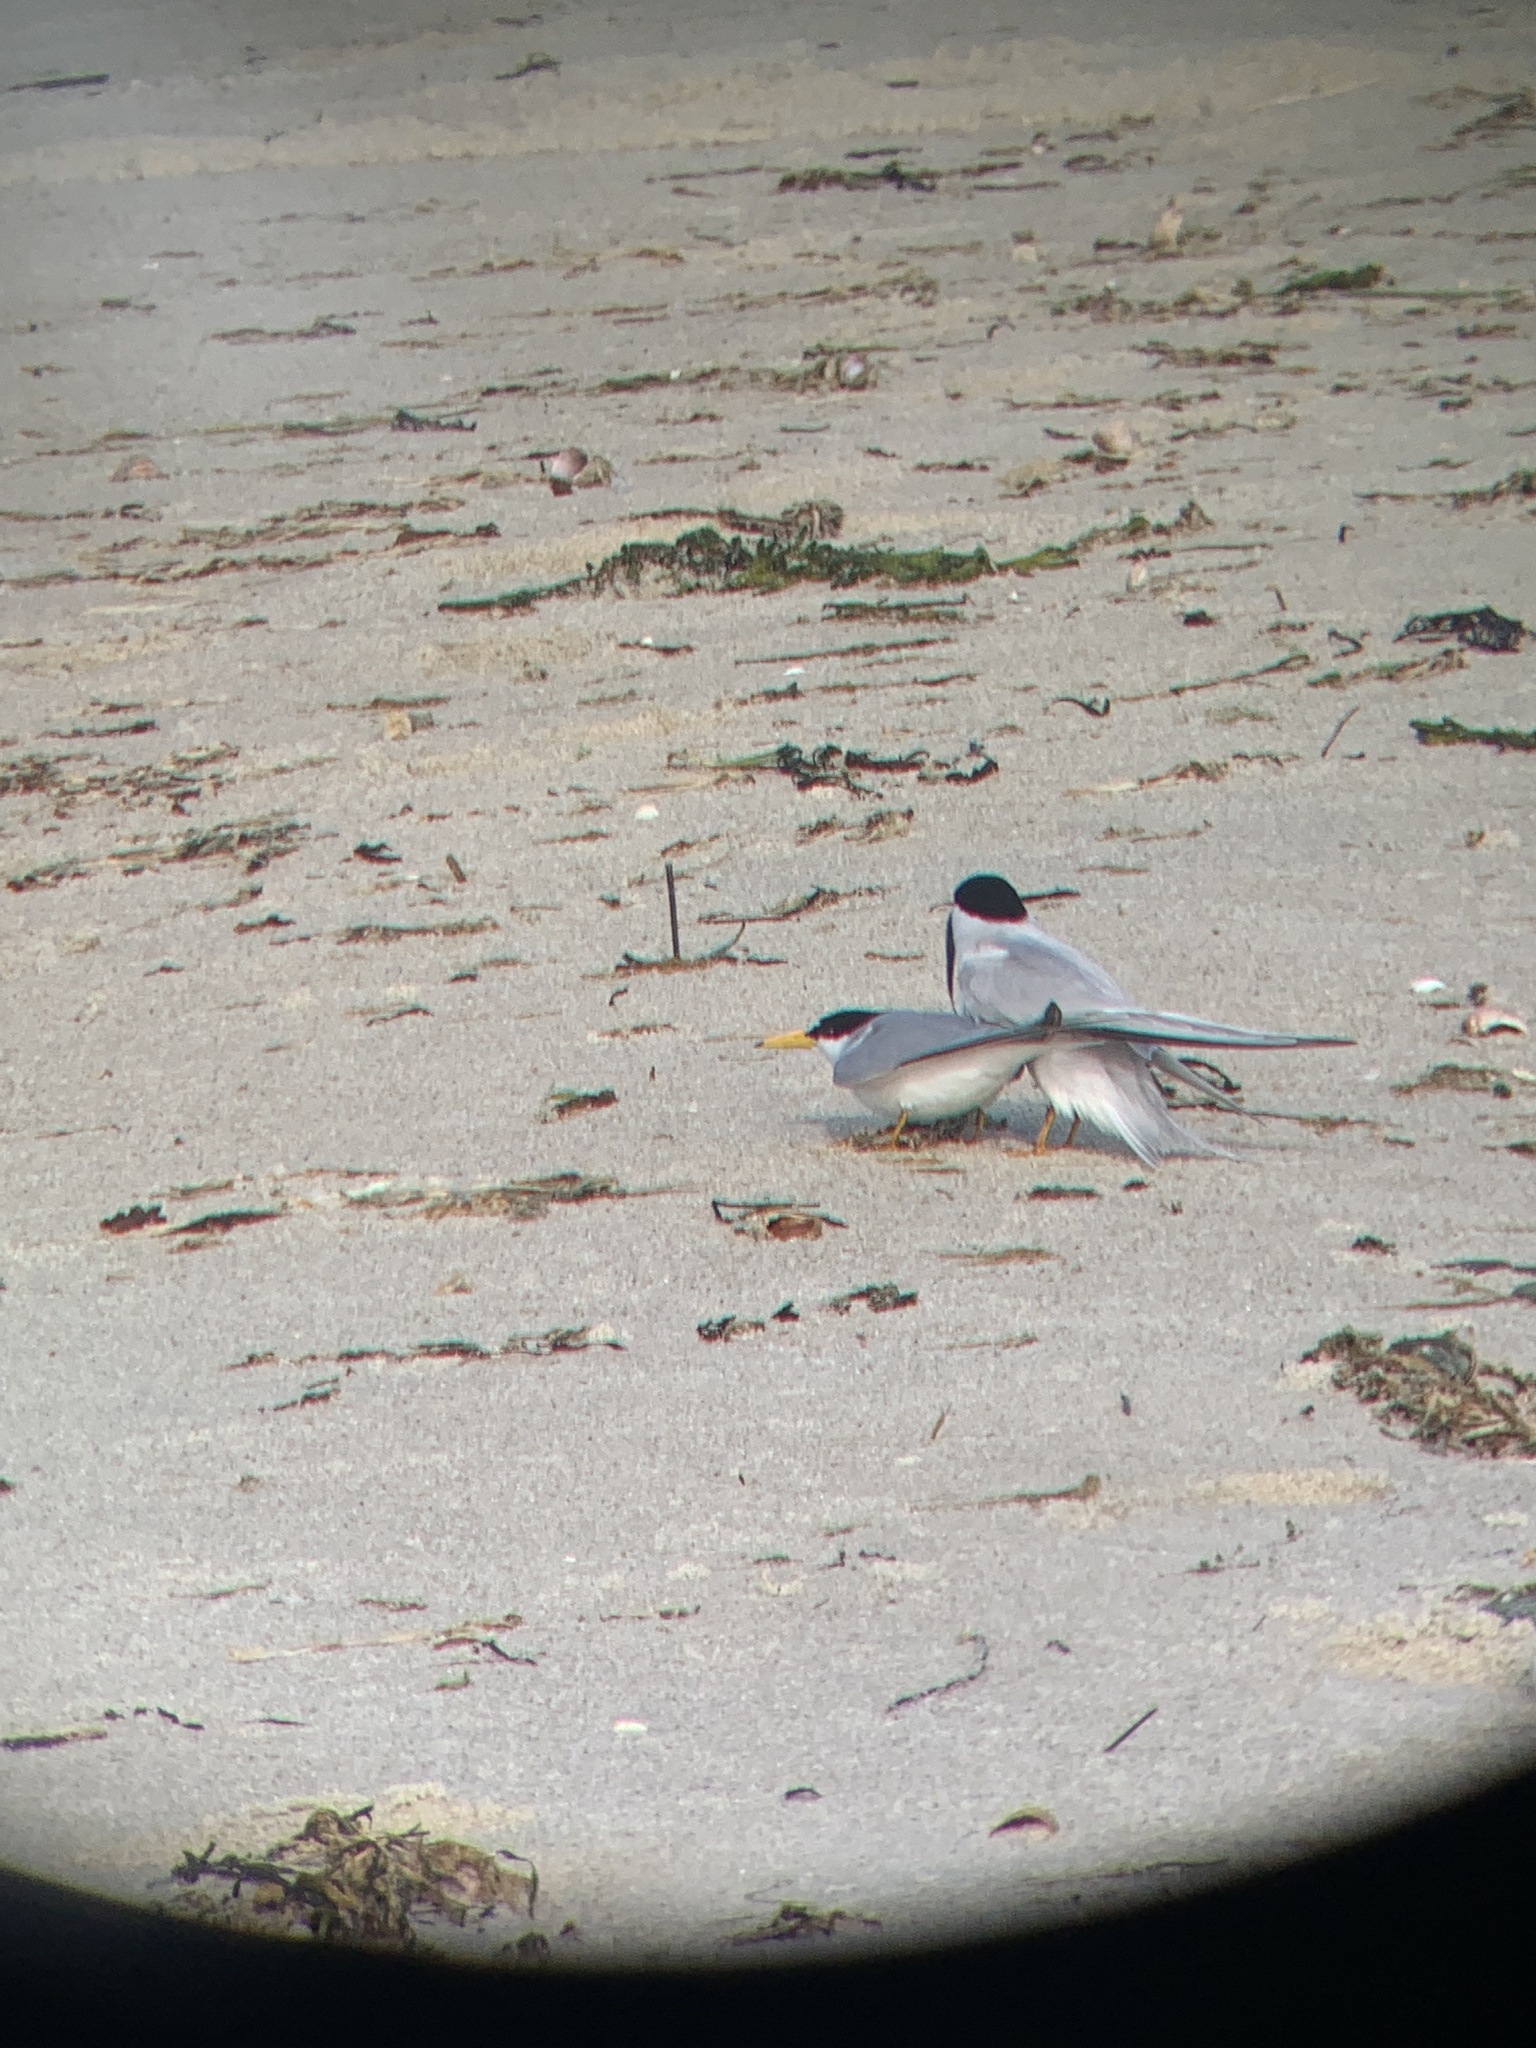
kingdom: Animalia
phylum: Chordata
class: Aves
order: Charadriiformes
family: Laridae
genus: Sternula
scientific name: Sternula antillarum
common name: Least tern
